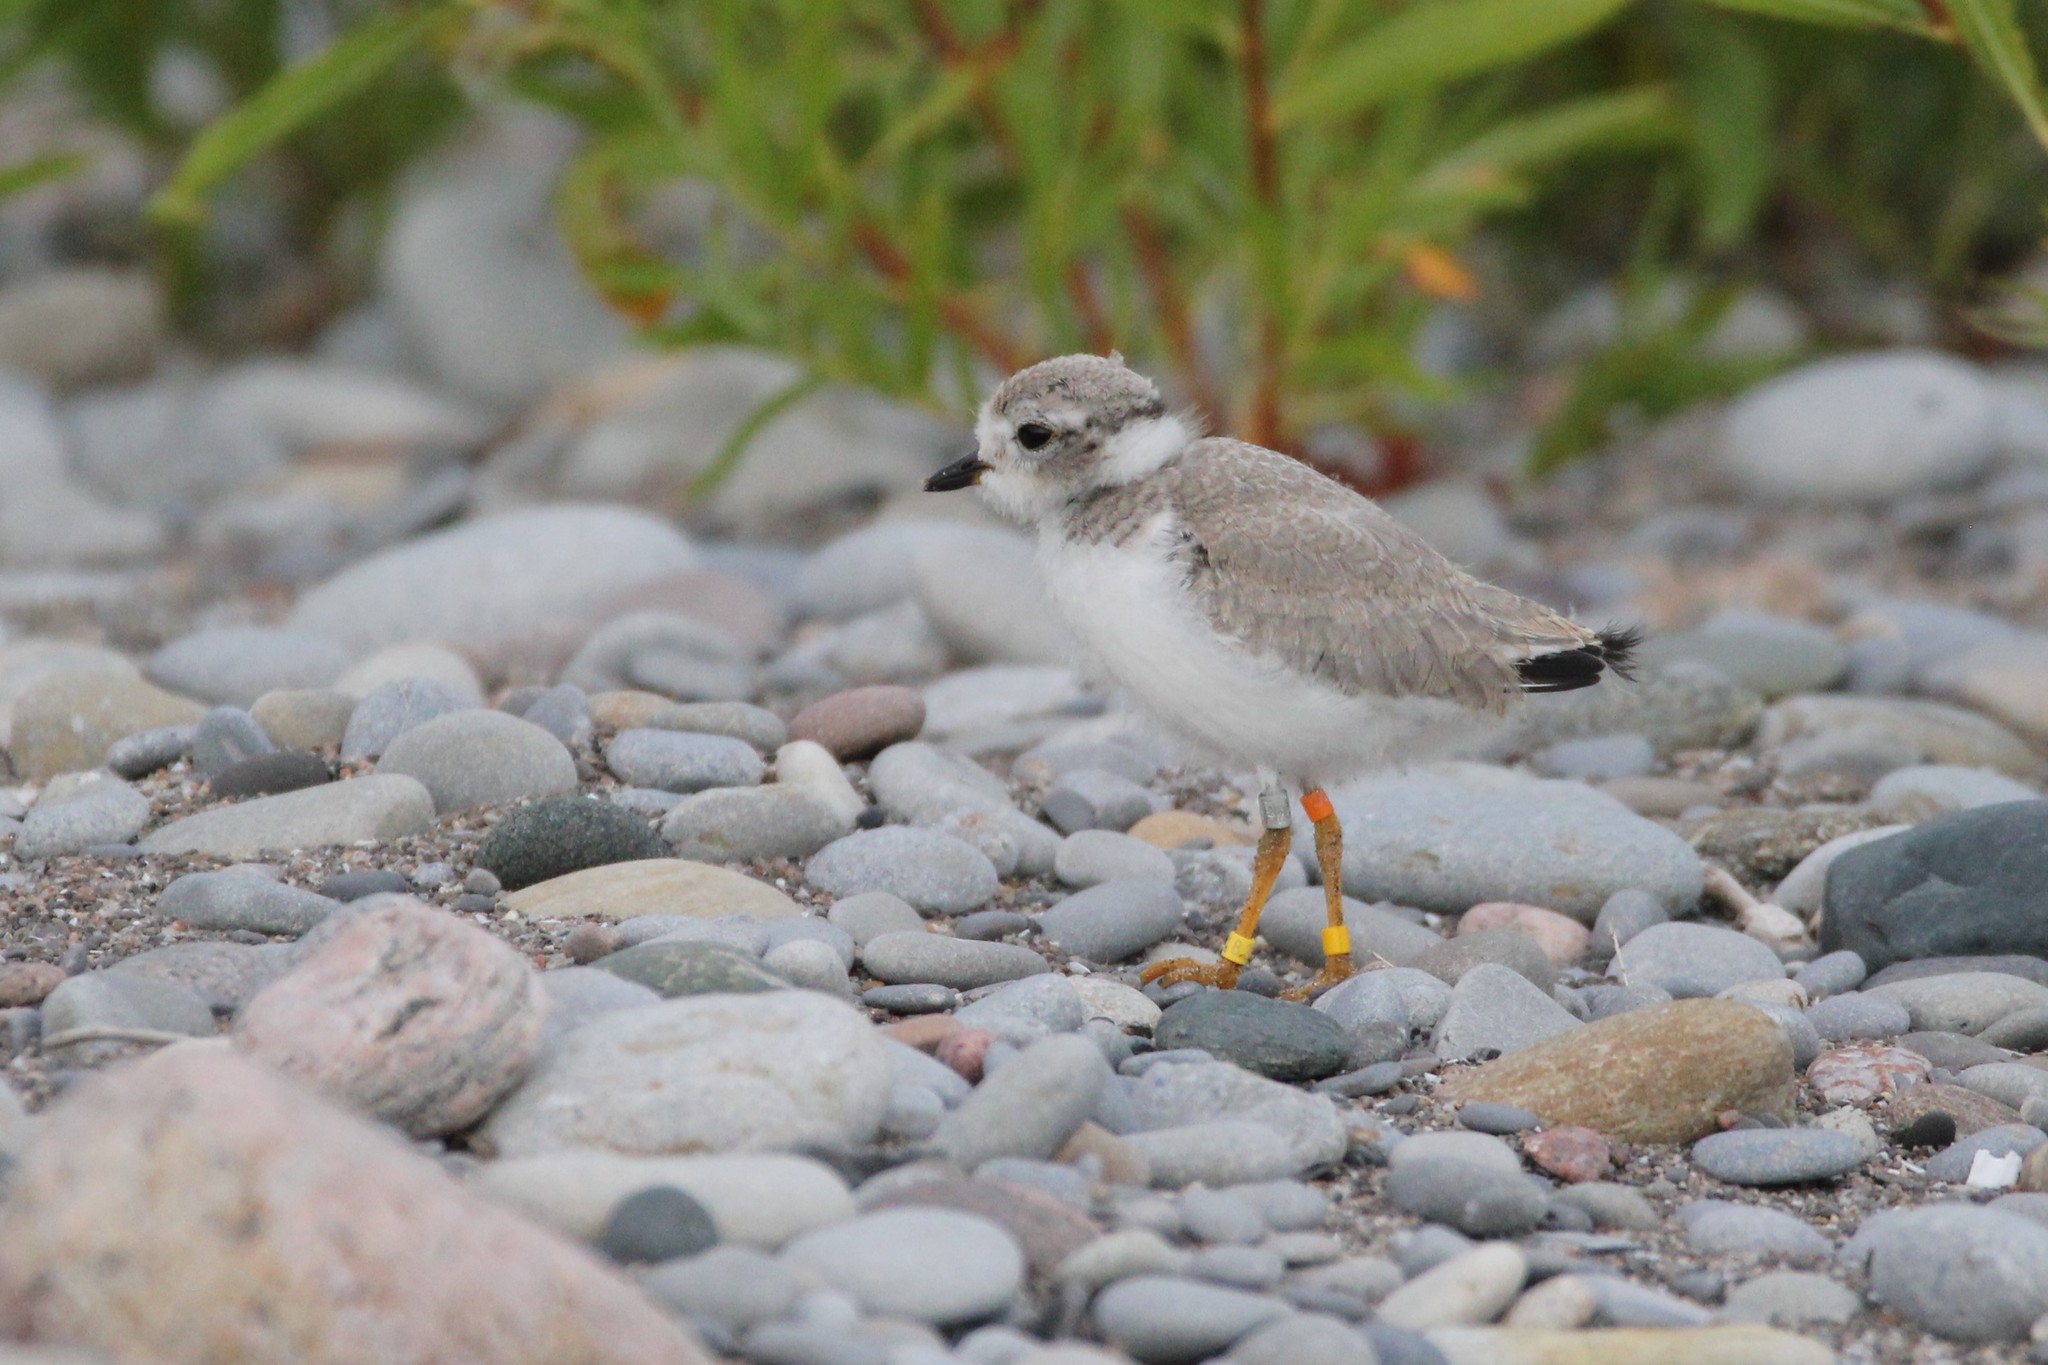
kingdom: Animalia
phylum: Chordata
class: Aves
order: Charadriiformes
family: Charadriidae
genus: Charadrius
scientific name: Charadrius melodus
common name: Piping plover
